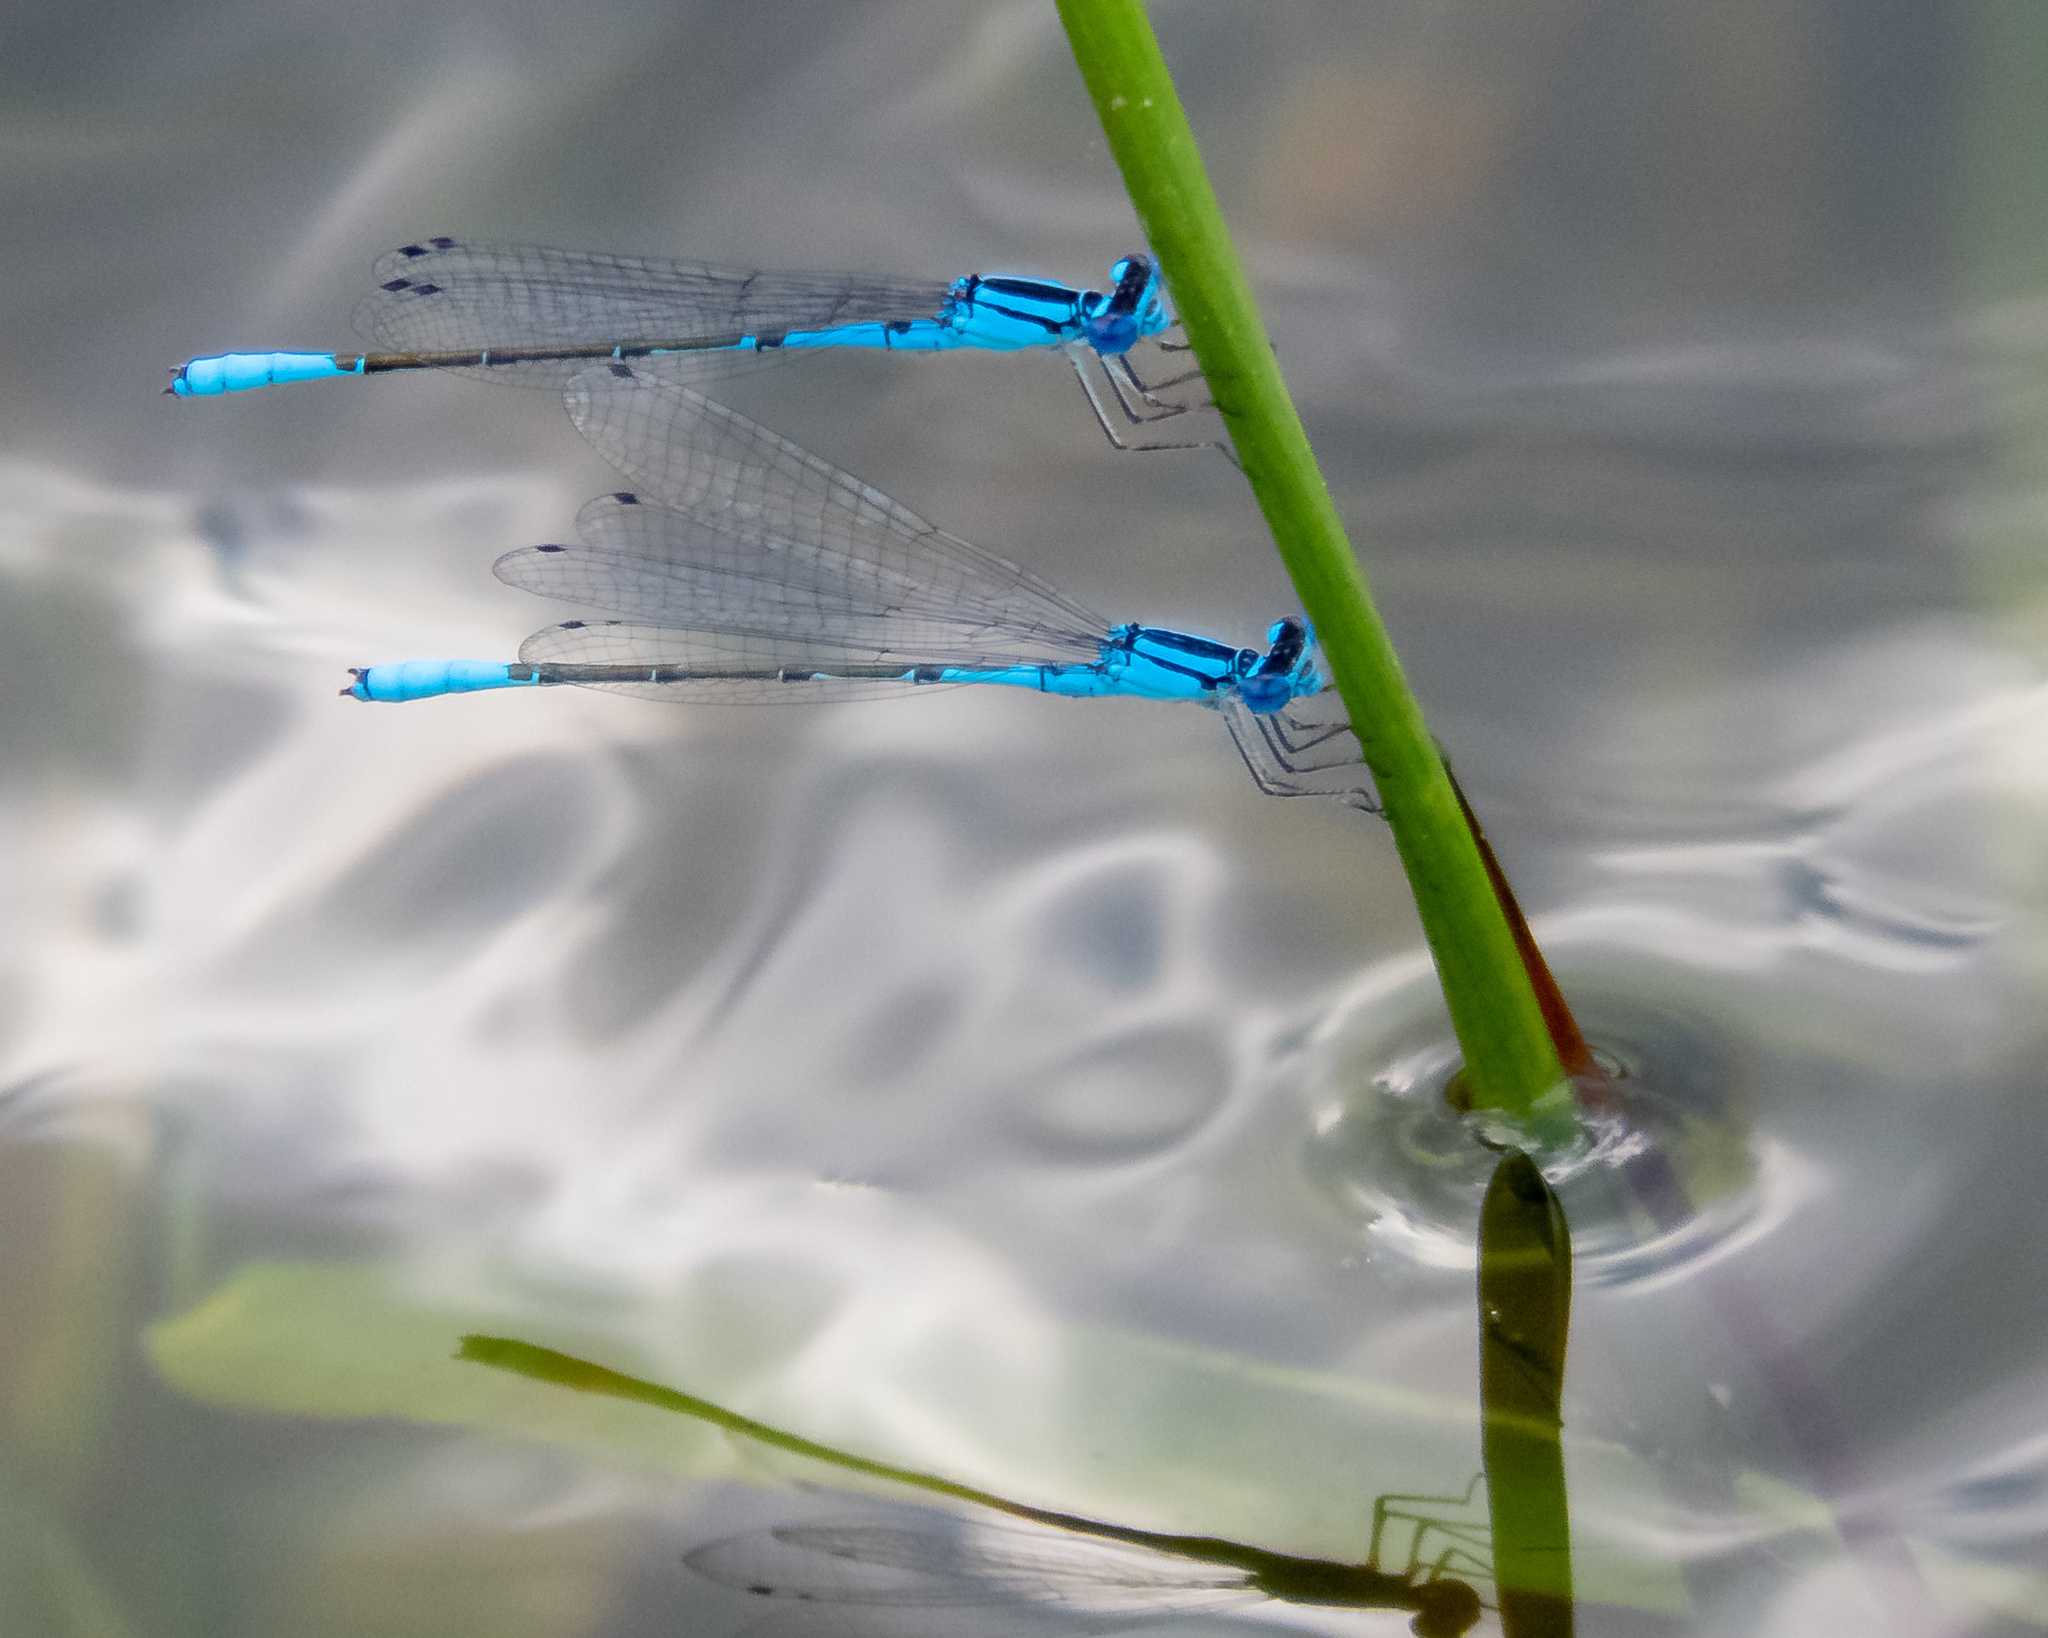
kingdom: Animalia
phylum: Arthropoda
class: Insecta
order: Odonata
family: Coenagrionidae
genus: Enallagma
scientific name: Enallagma aspersum
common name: Azure bluet
